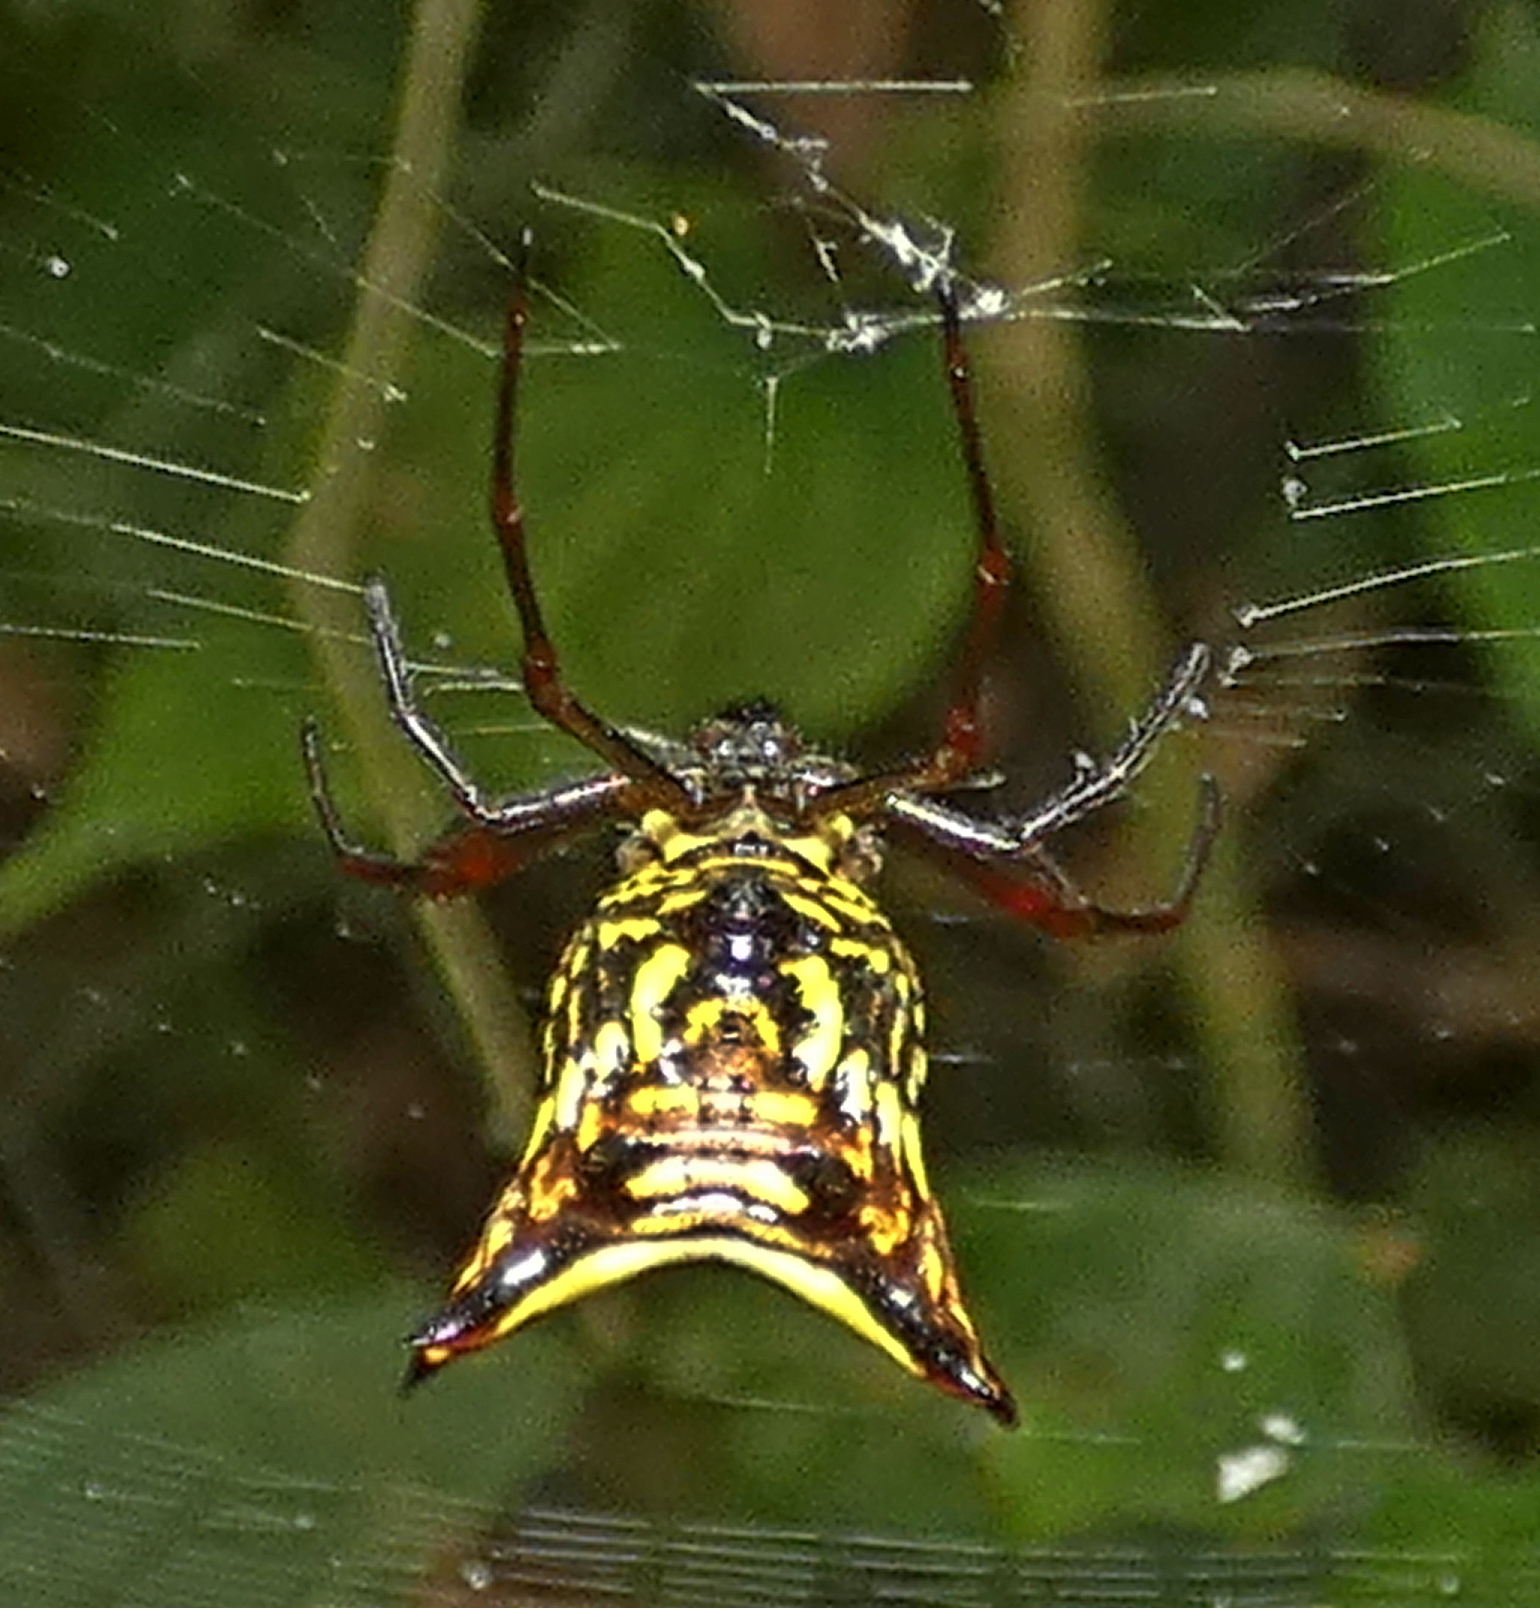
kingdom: Animalia
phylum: Arthropoda
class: Arachnida
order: Araneae
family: Araneidae
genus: Micrathena
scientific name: Micrathena fissispina
